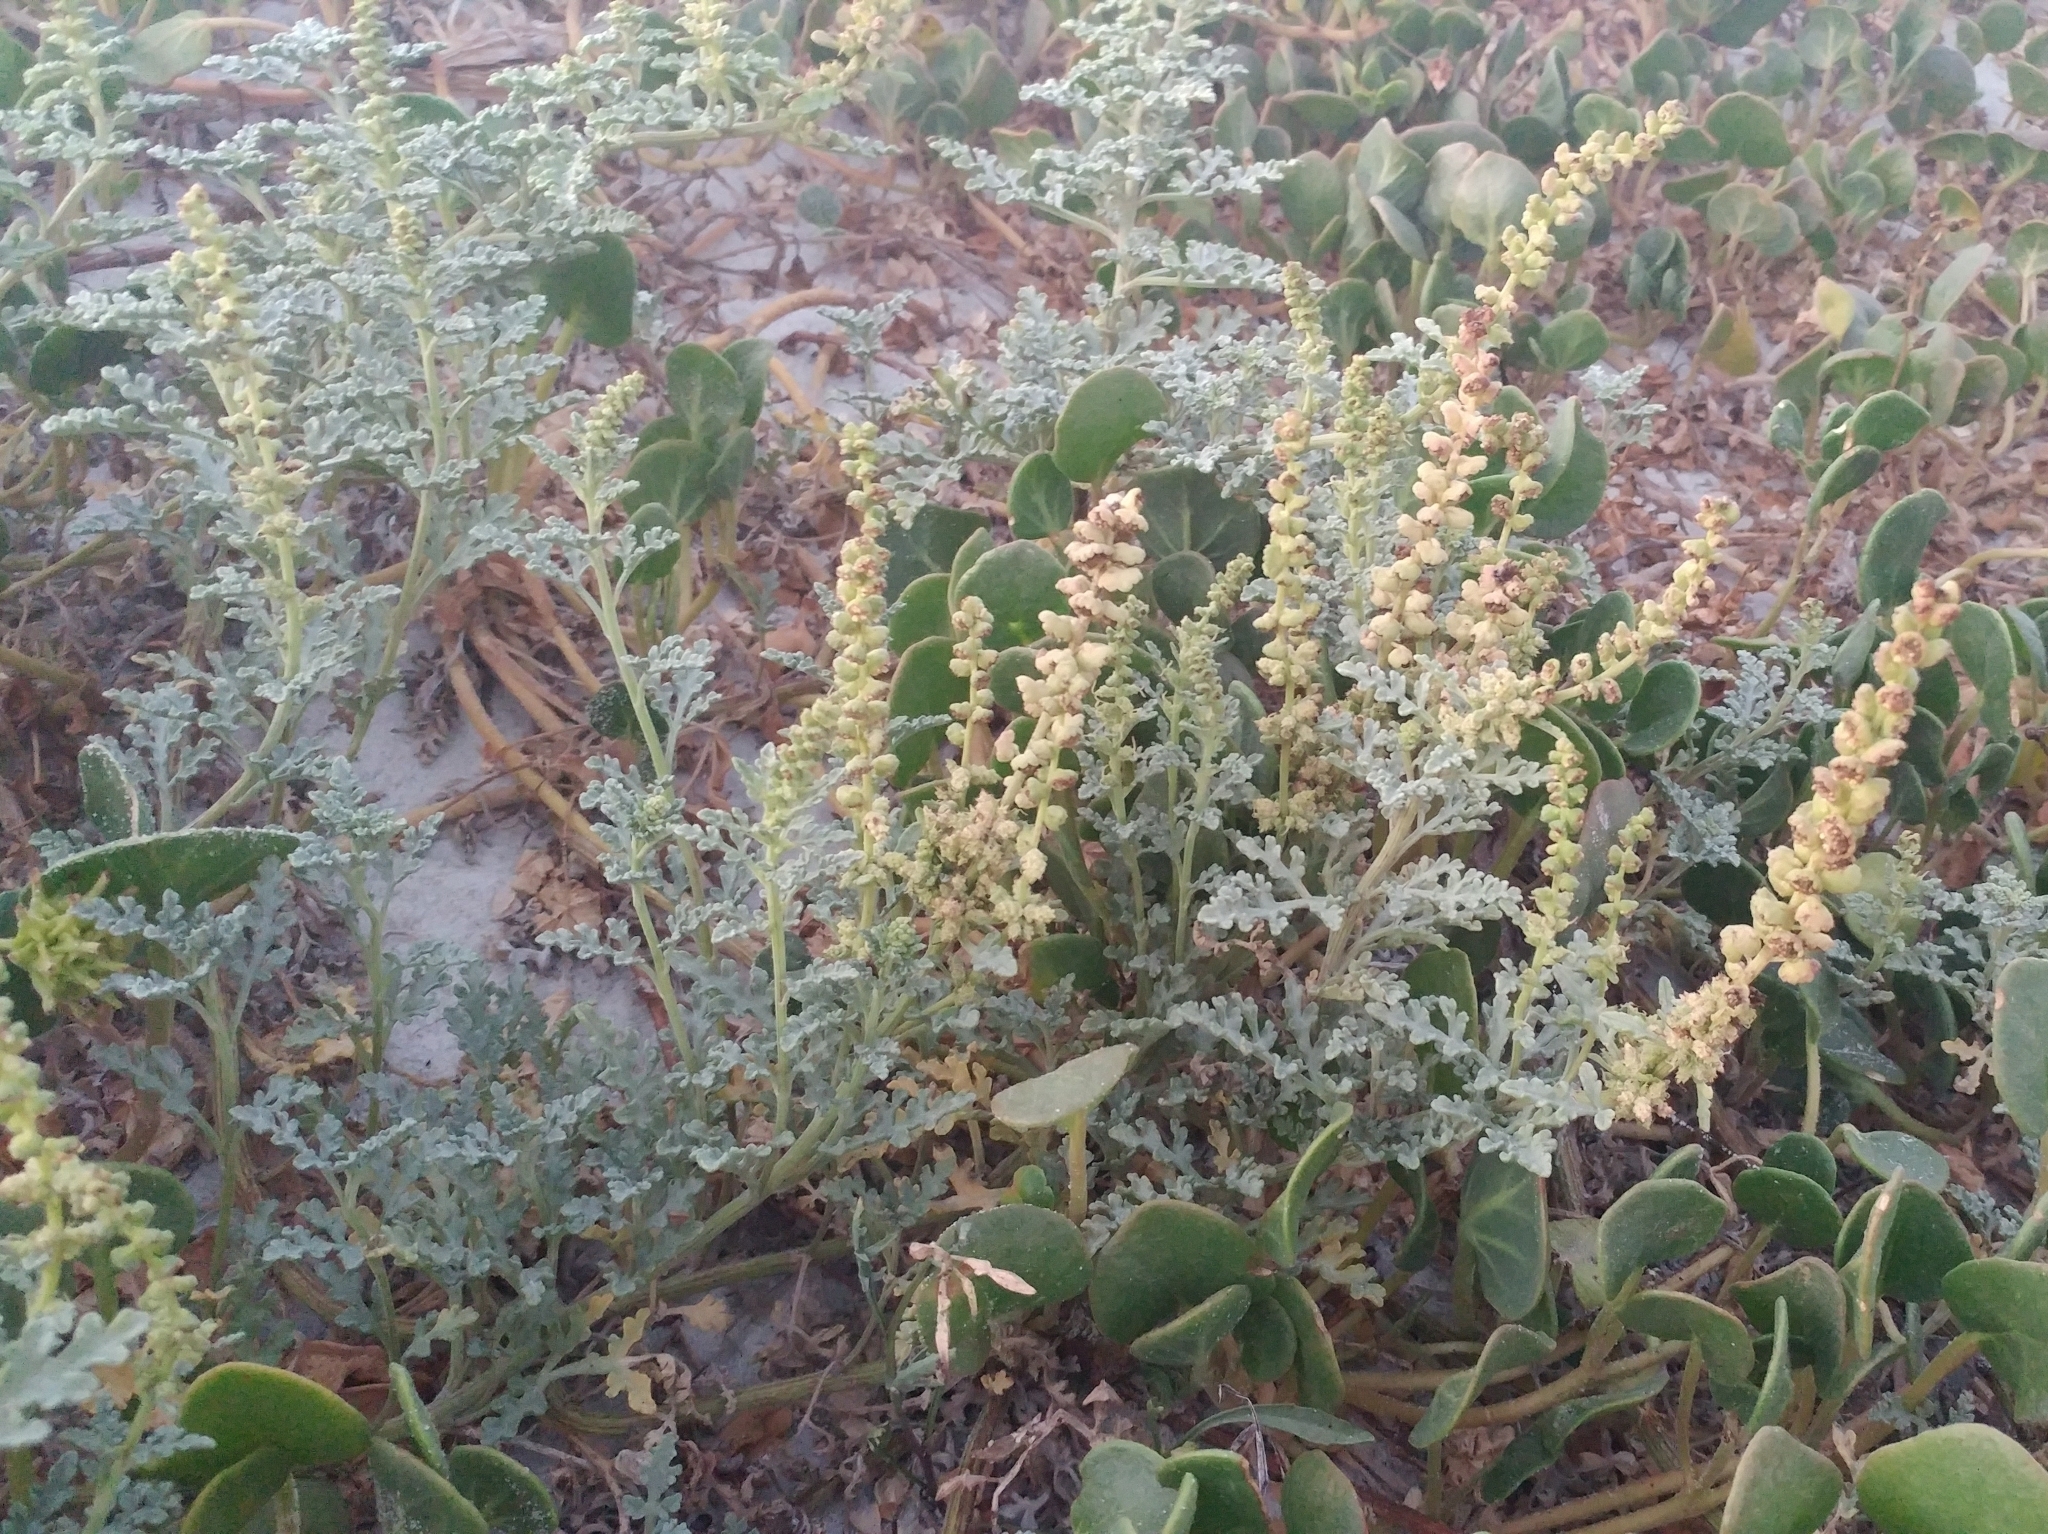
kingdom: Plantae
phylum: Tracheophyta
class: Magnoliopsida
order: Asterales
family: Asteraceae
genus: Ambrosia
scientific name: Ambrosia chamissonis
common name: Beachbur
